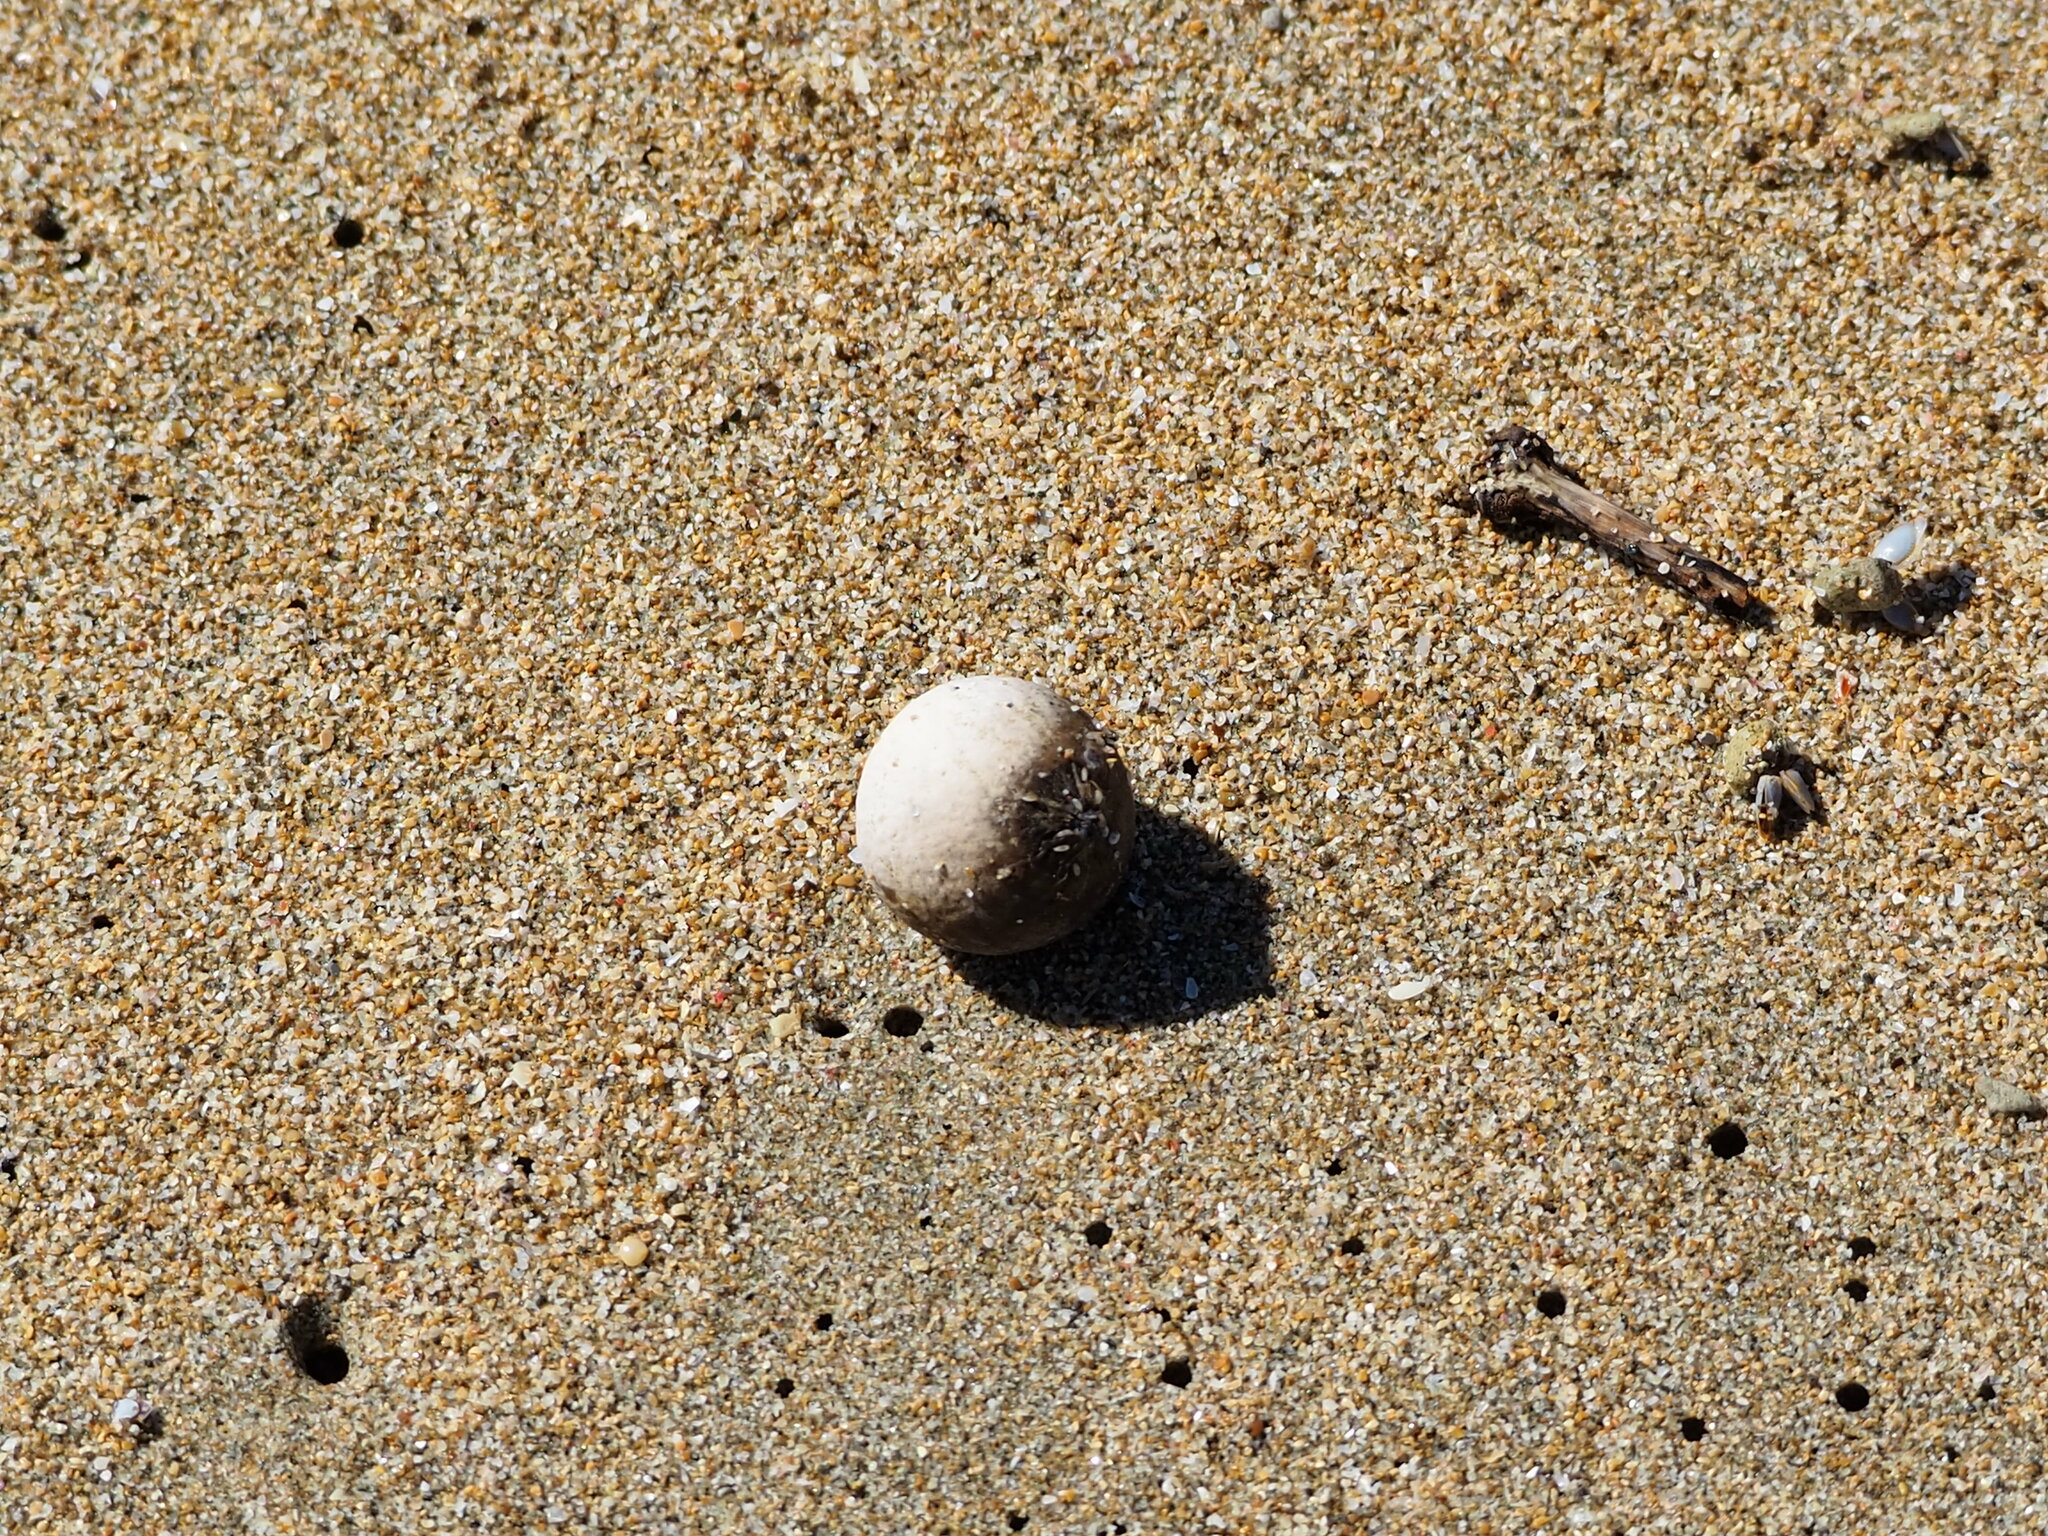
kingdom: Plantae
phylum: Tracheophyta
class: Magnoliopsida
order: Malpighiales
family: Calophyllaceae
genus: Calophyllum
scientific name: Calophyllum inophyllum
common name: Alexandrian laurel
